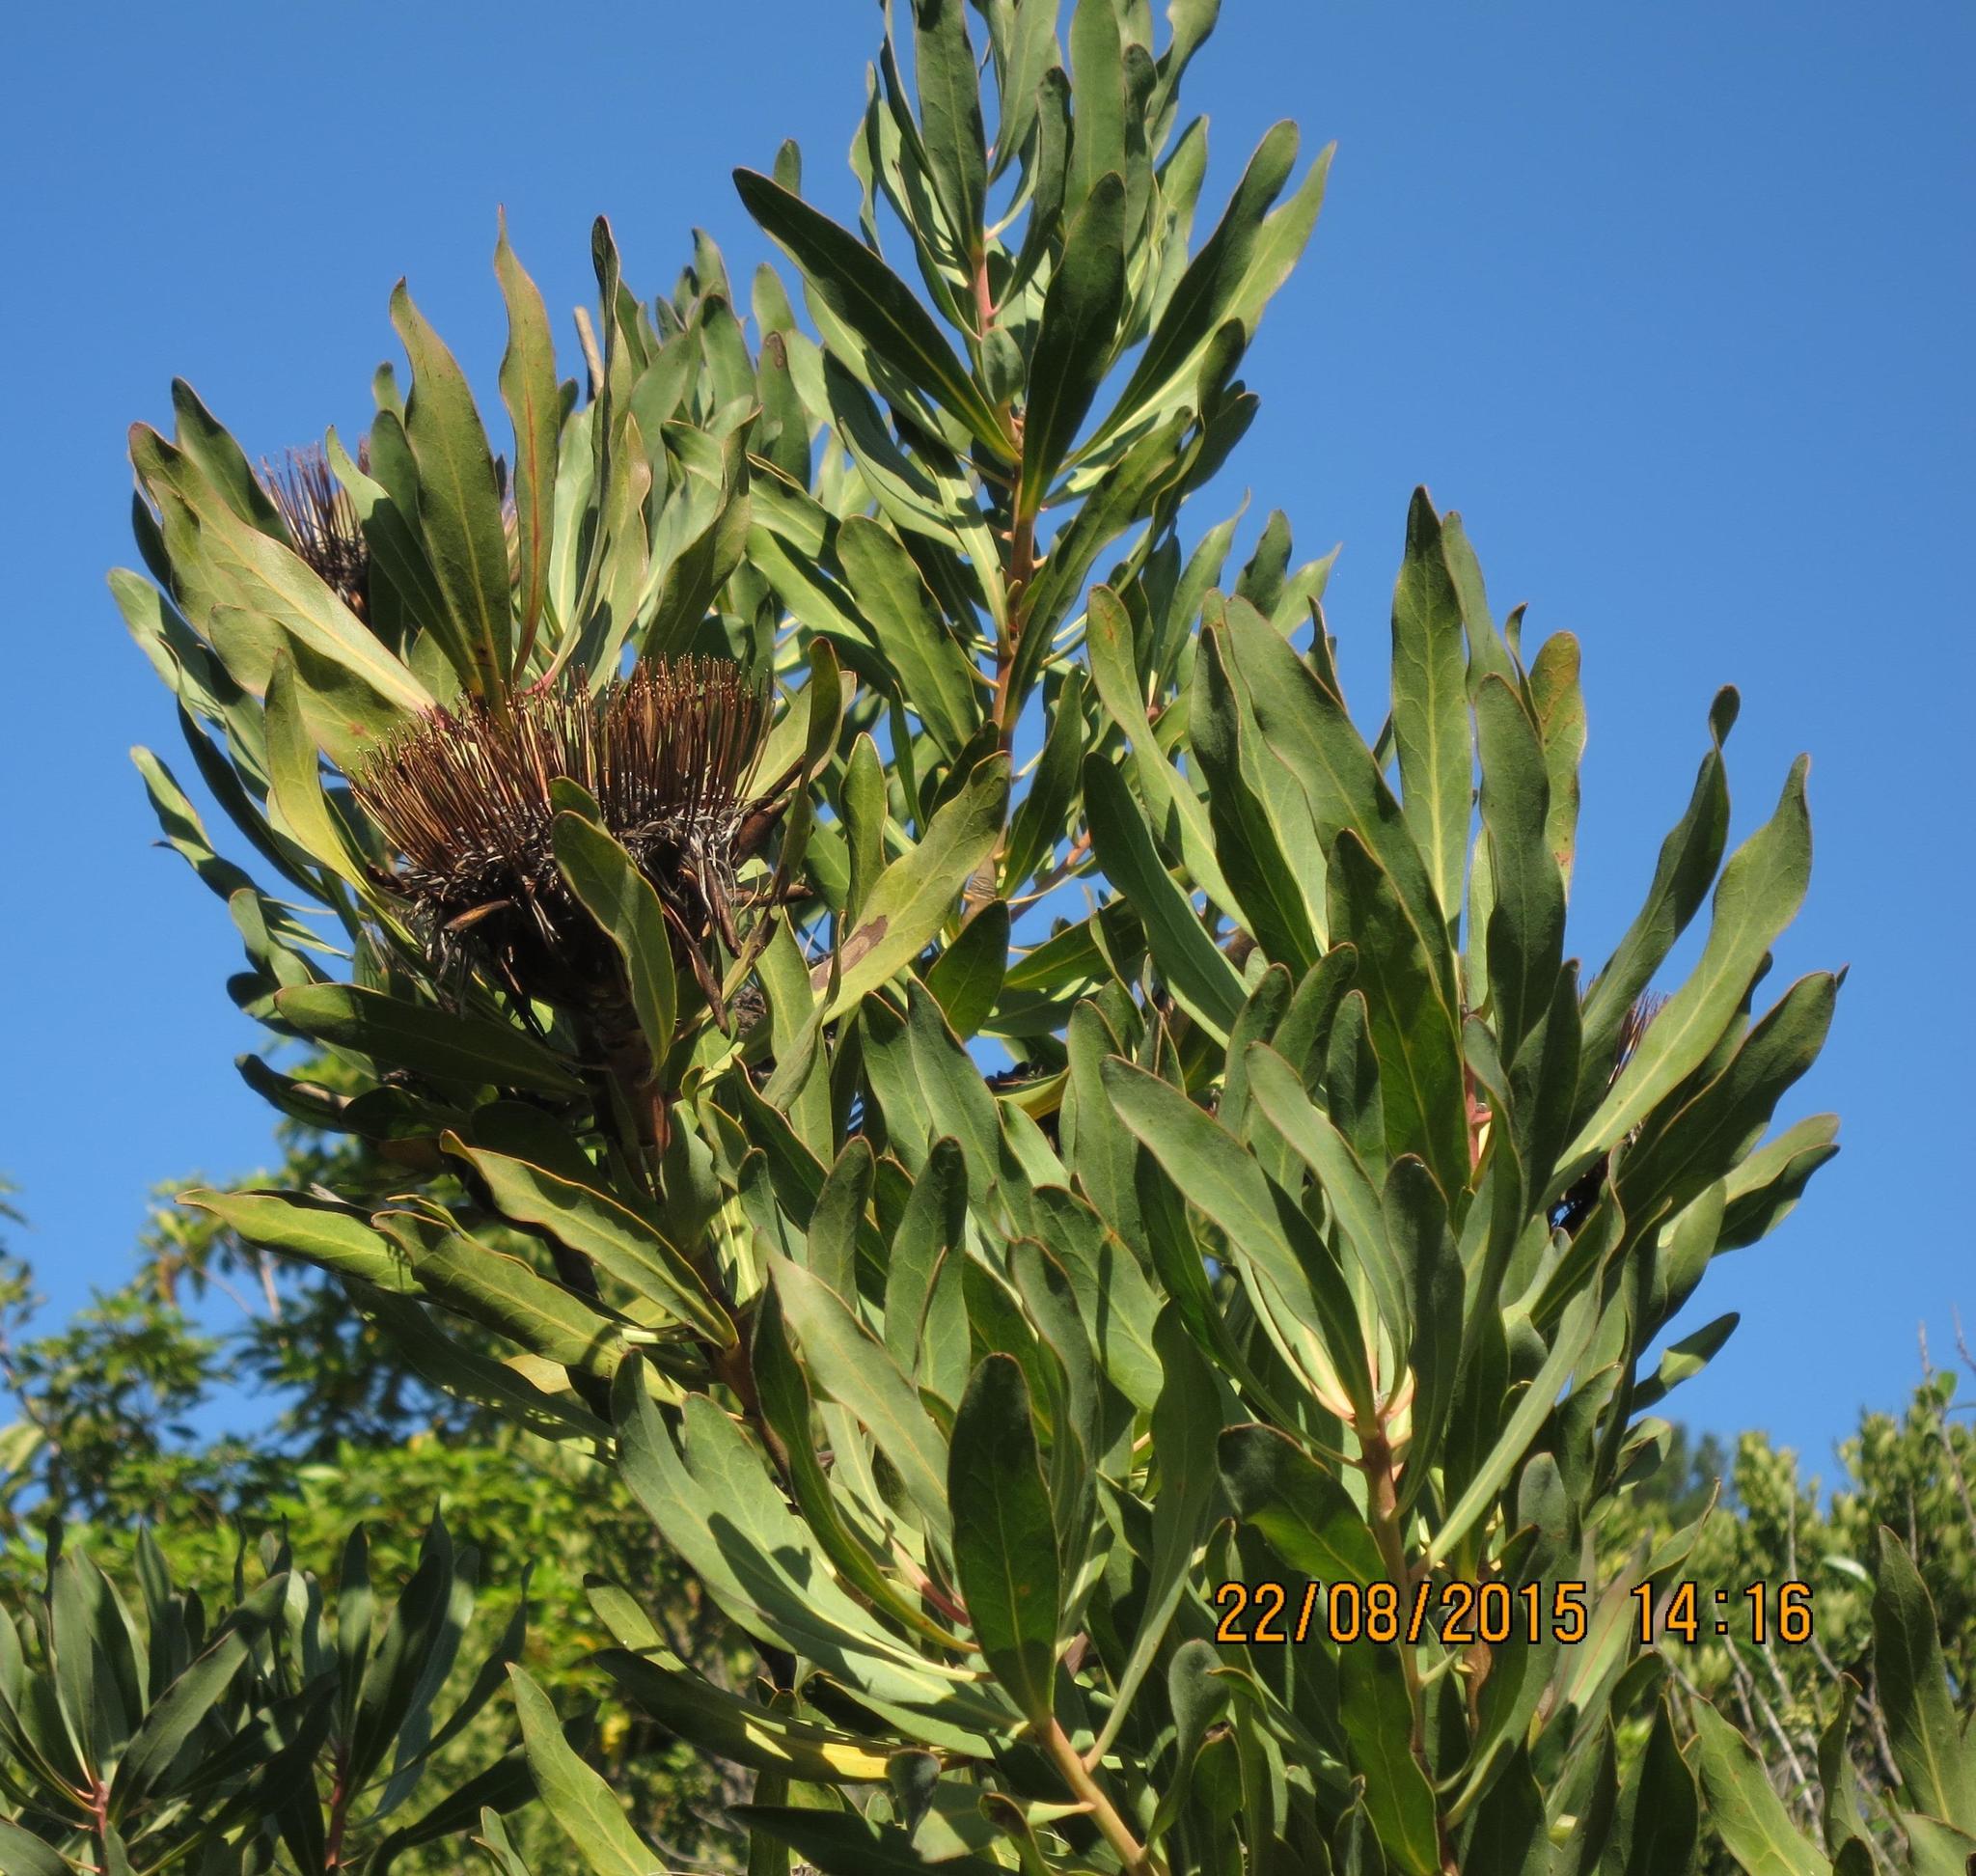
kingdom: Plantae
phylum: Tracheophyta
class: Magnoliopsida
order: Proteales
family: Proteaceae
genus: Protea
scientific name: Protea susannae
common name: Foetid-leaf sugarbush
